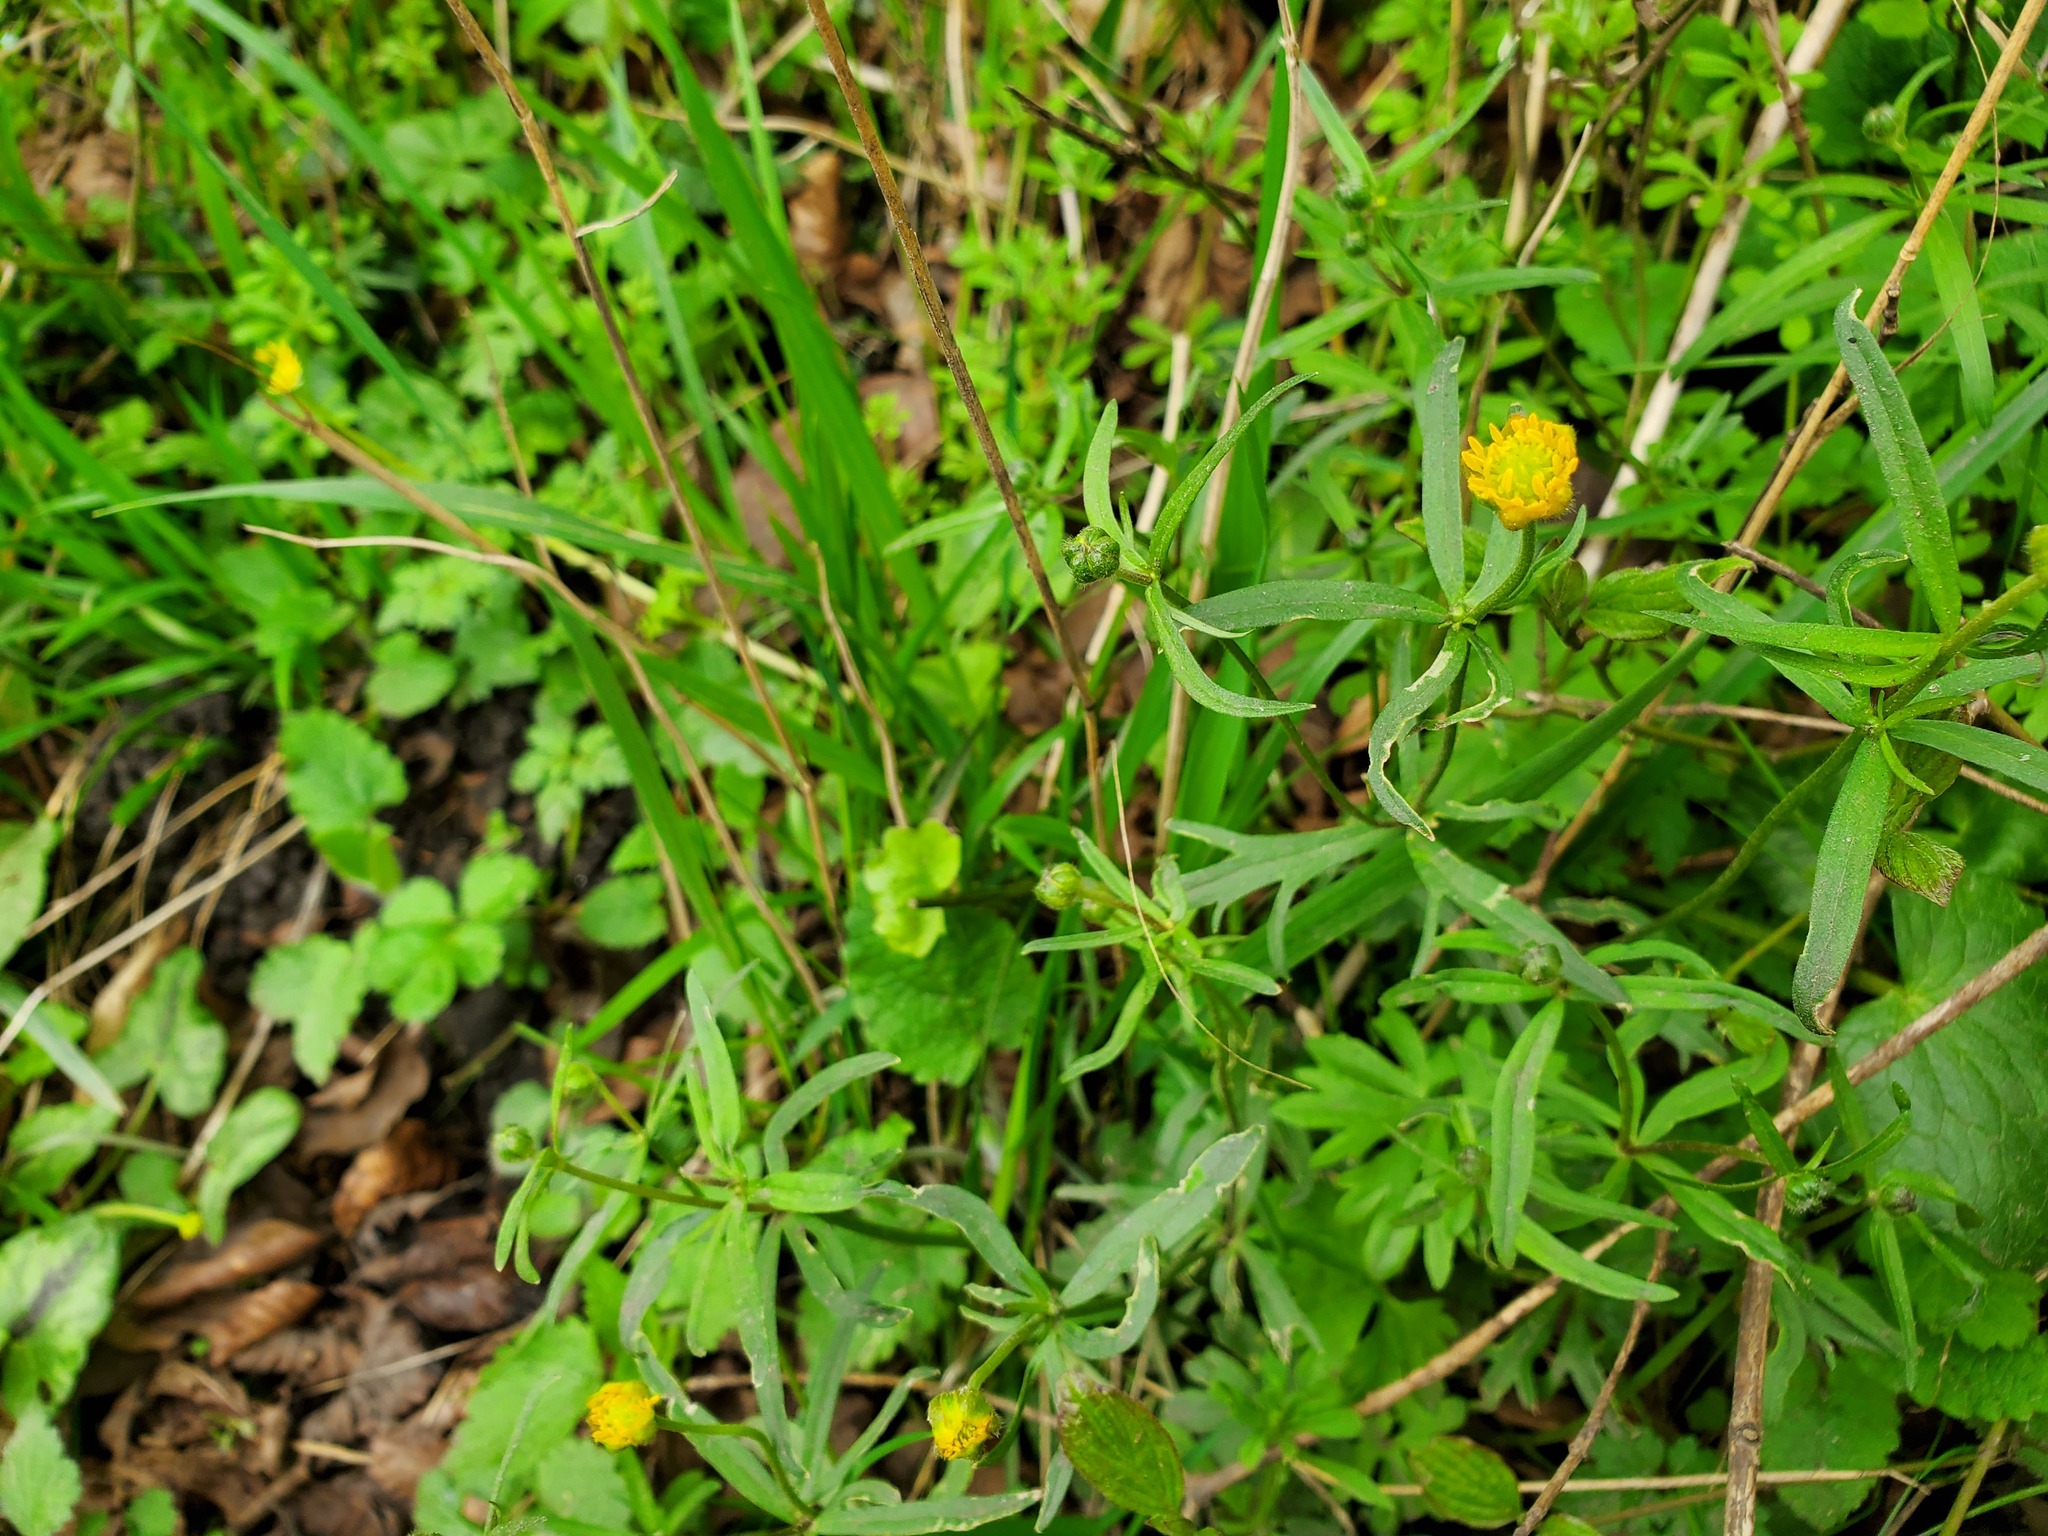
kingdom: Plantae
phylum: Tracheophyta
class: Magnoliopsida
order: Ranunculales
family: Ranunculaceae
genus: Ranunculus
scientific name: Ranunculus auricomus
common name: Goldilocks buttercup
